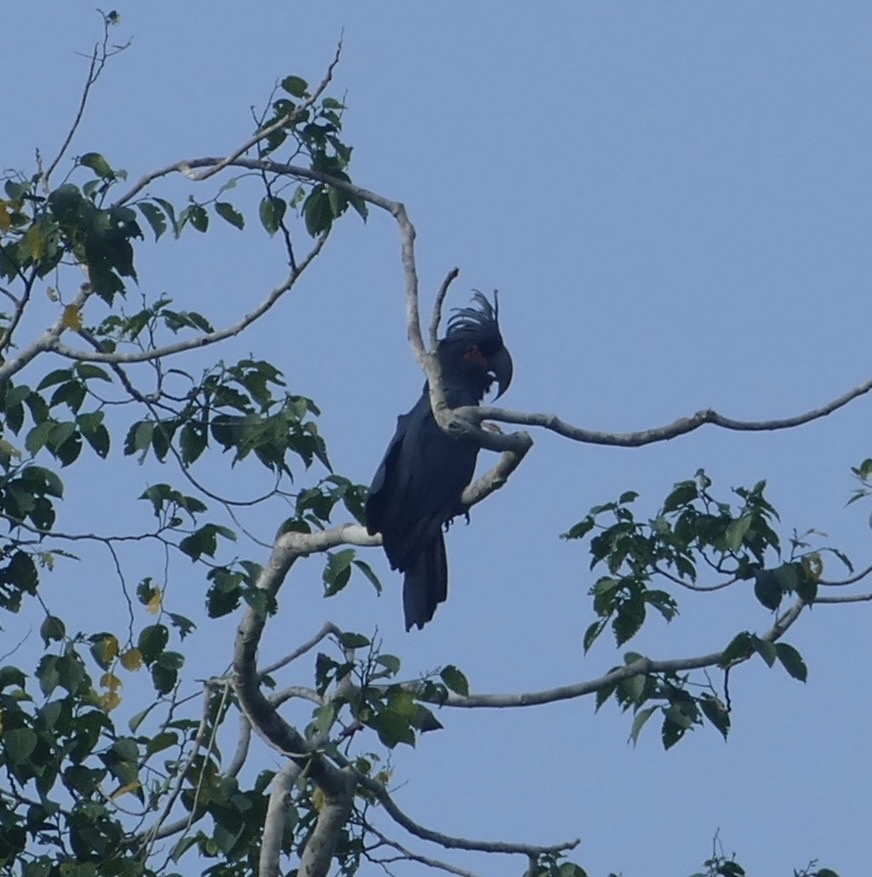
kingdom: Animalia
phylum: Chordata
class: Aves
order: Psittaciformes
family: Psittacidae
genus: Probosciger
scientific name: Probosciger aterrimus
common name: Palm cockatoo
